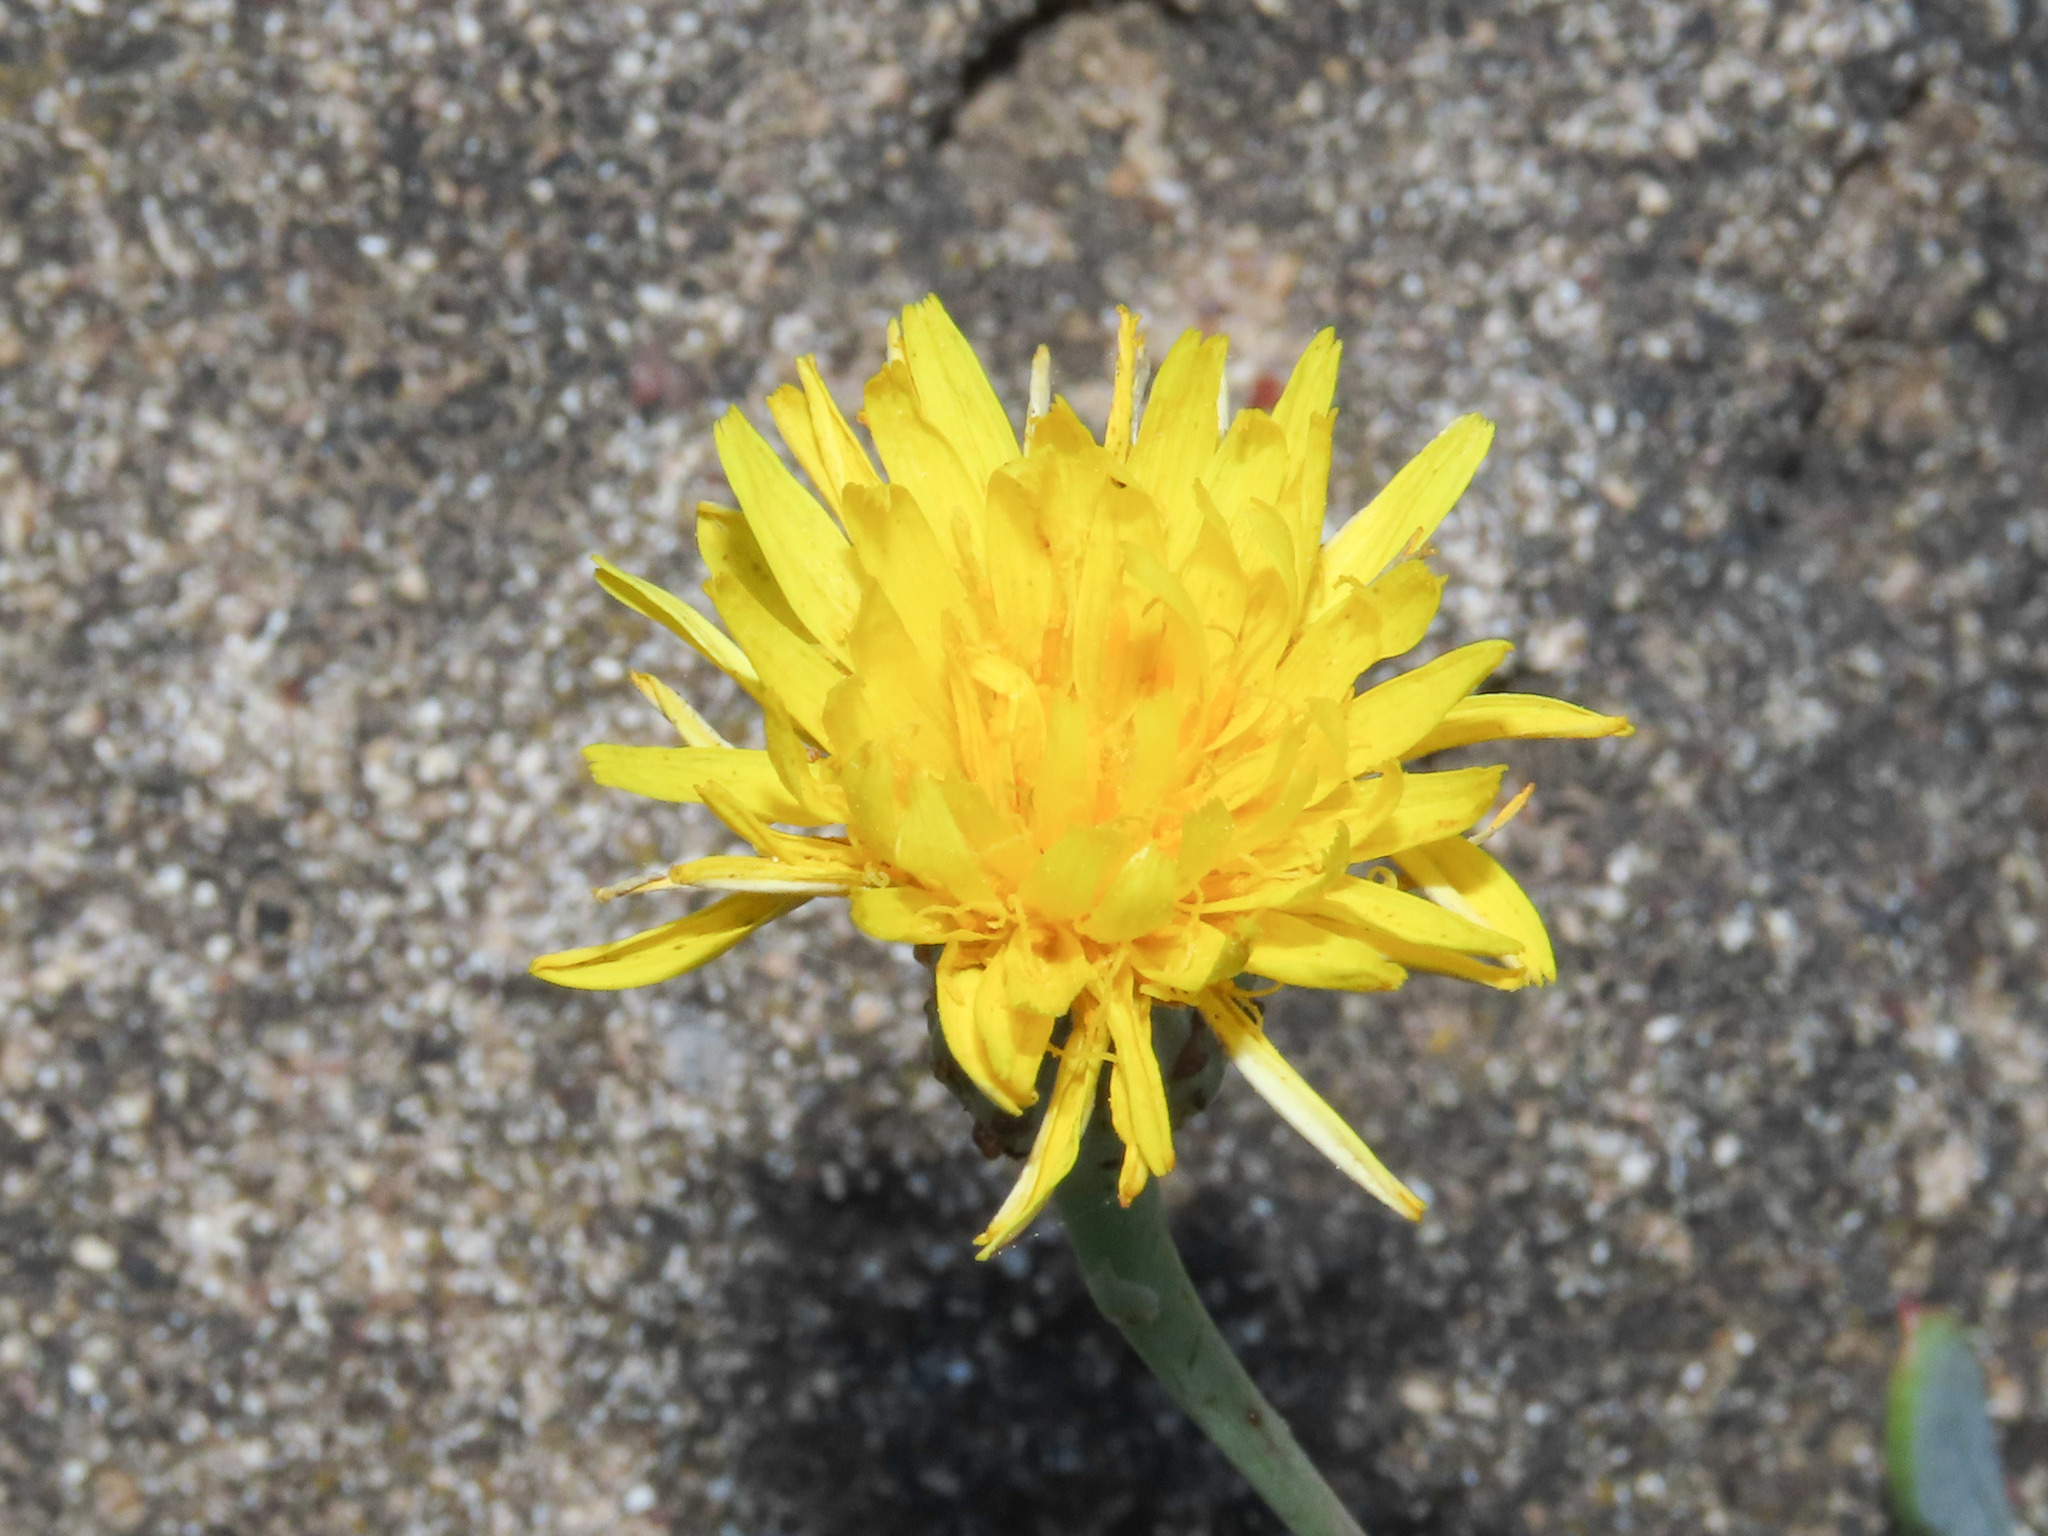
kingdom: Plantae
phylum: Tracheophyta
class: Magnoliopsida
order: Asterales
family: Asteraceae
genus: Reichardia
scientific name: Reichardia picroides
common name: Common brighteyes
